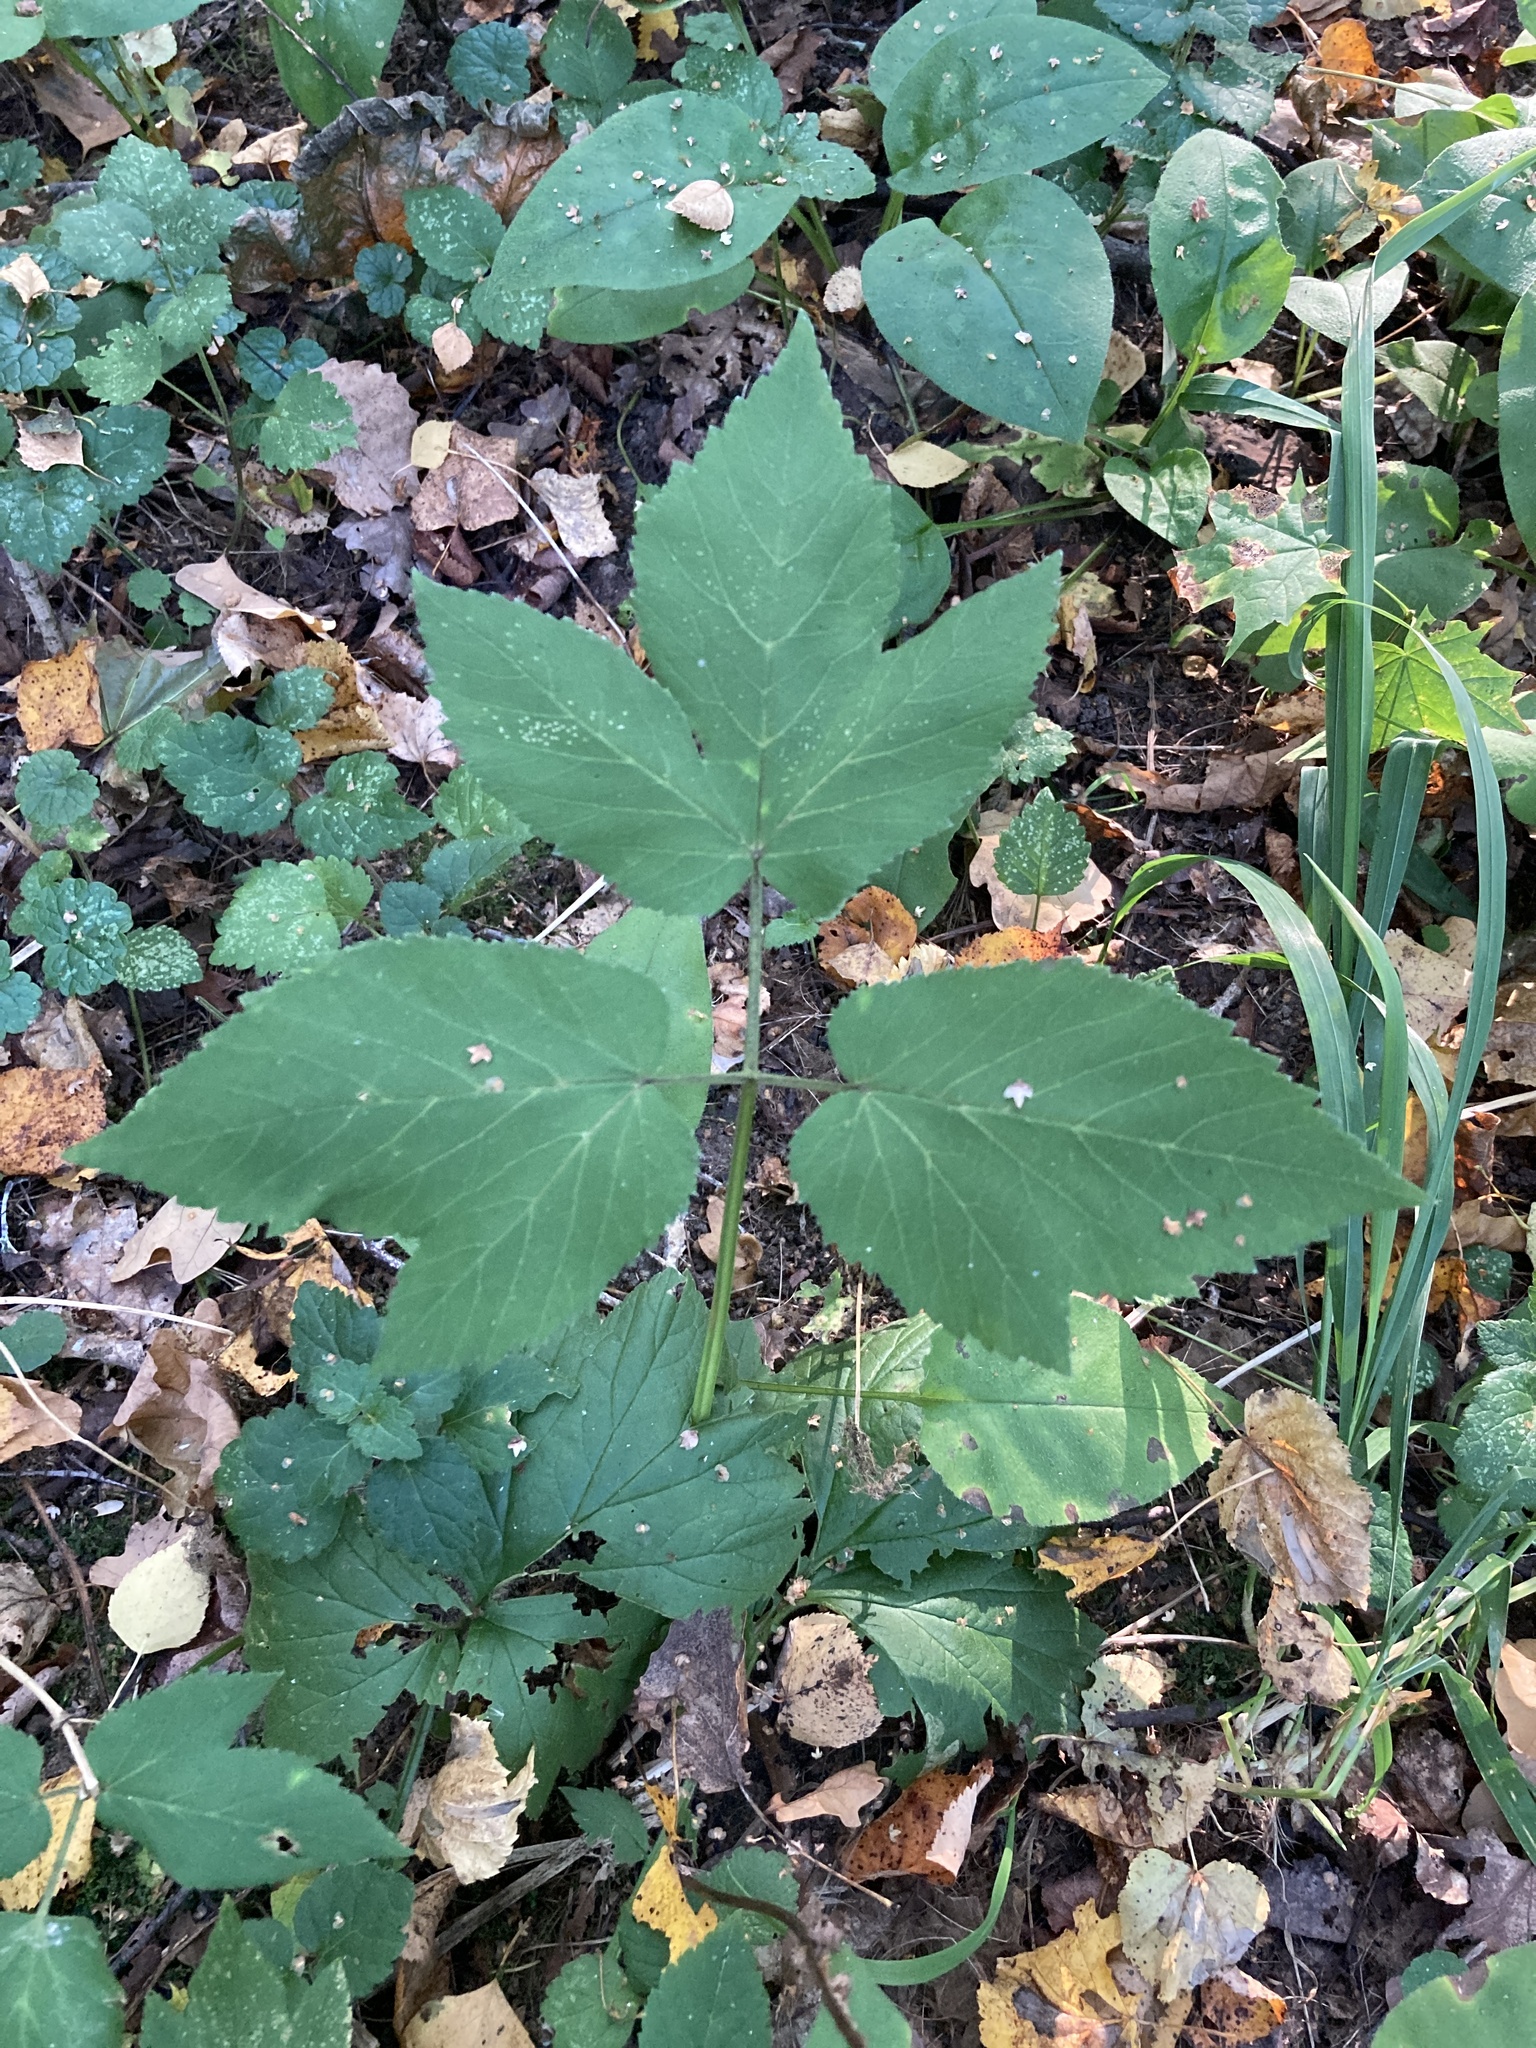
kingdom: Plantae
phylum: Tracheophyta
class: Magnoliopsida
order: Apiales
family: Apiaceae
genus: Aegopodium
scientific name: Aegopodium podagraria
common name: Ground-elder
